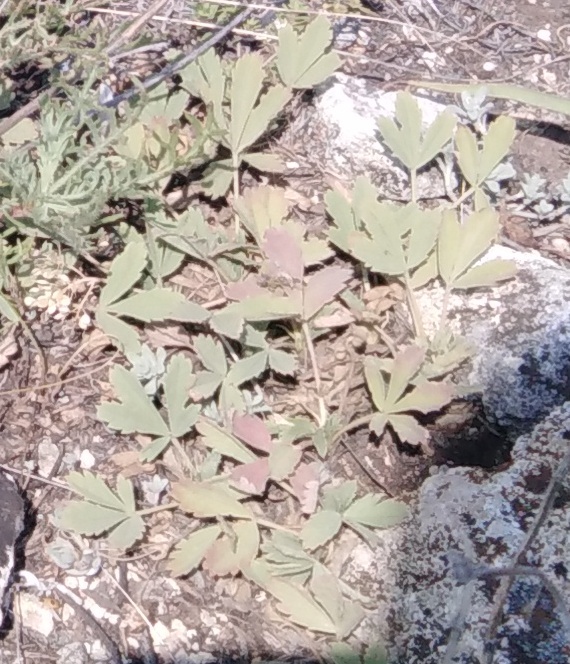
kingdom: Plantae
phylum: Tracheophyta
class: Magnoliopsida
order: Rosales
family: Rosaceae
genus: Potentilla
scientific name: Potentilla incana
